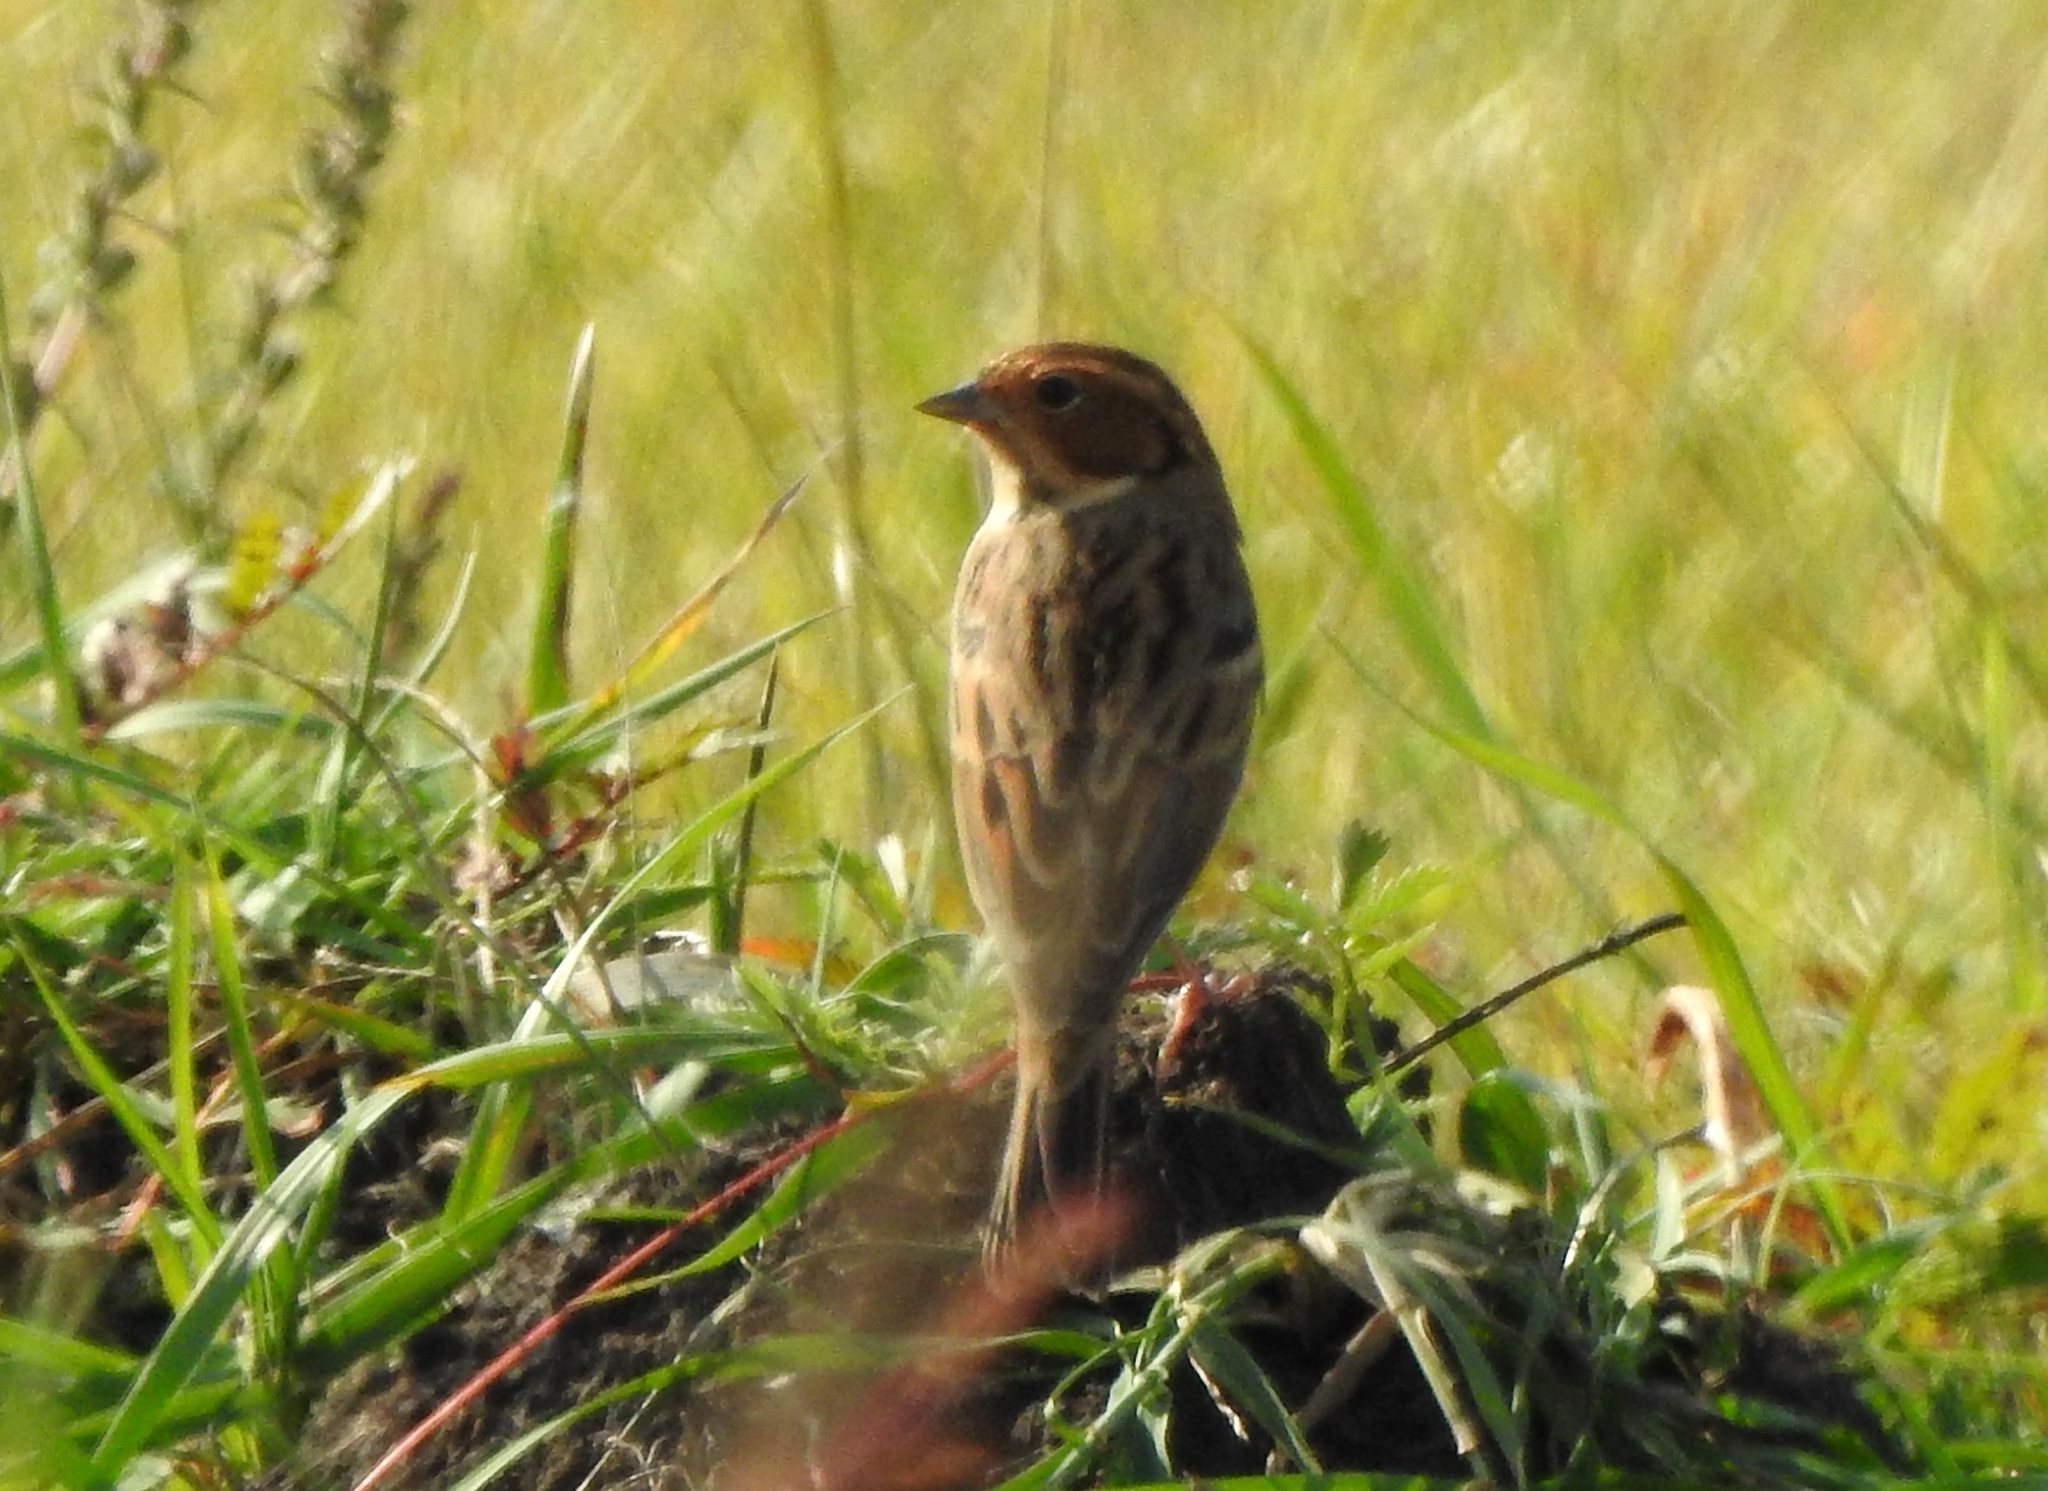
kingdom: Animalia
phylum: Chordata
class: Aves
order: Passeriformes
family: Emberizidae
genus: Emberiza
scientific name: Emberiza pusilla
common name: Little bunting
